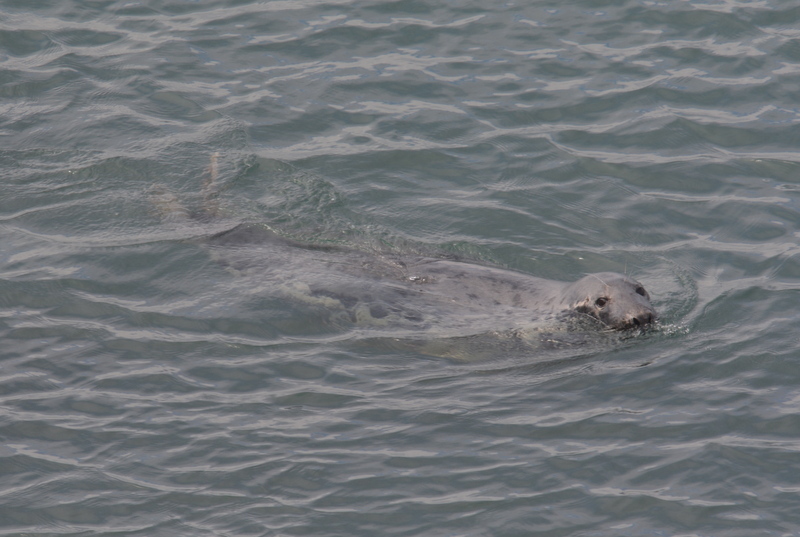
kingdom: Animalia
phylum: Chordata
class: Mammalia
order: Carnivora
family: Phocidae
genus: Halichoerus
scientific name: Halichoerus grypus
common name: Grey seal
